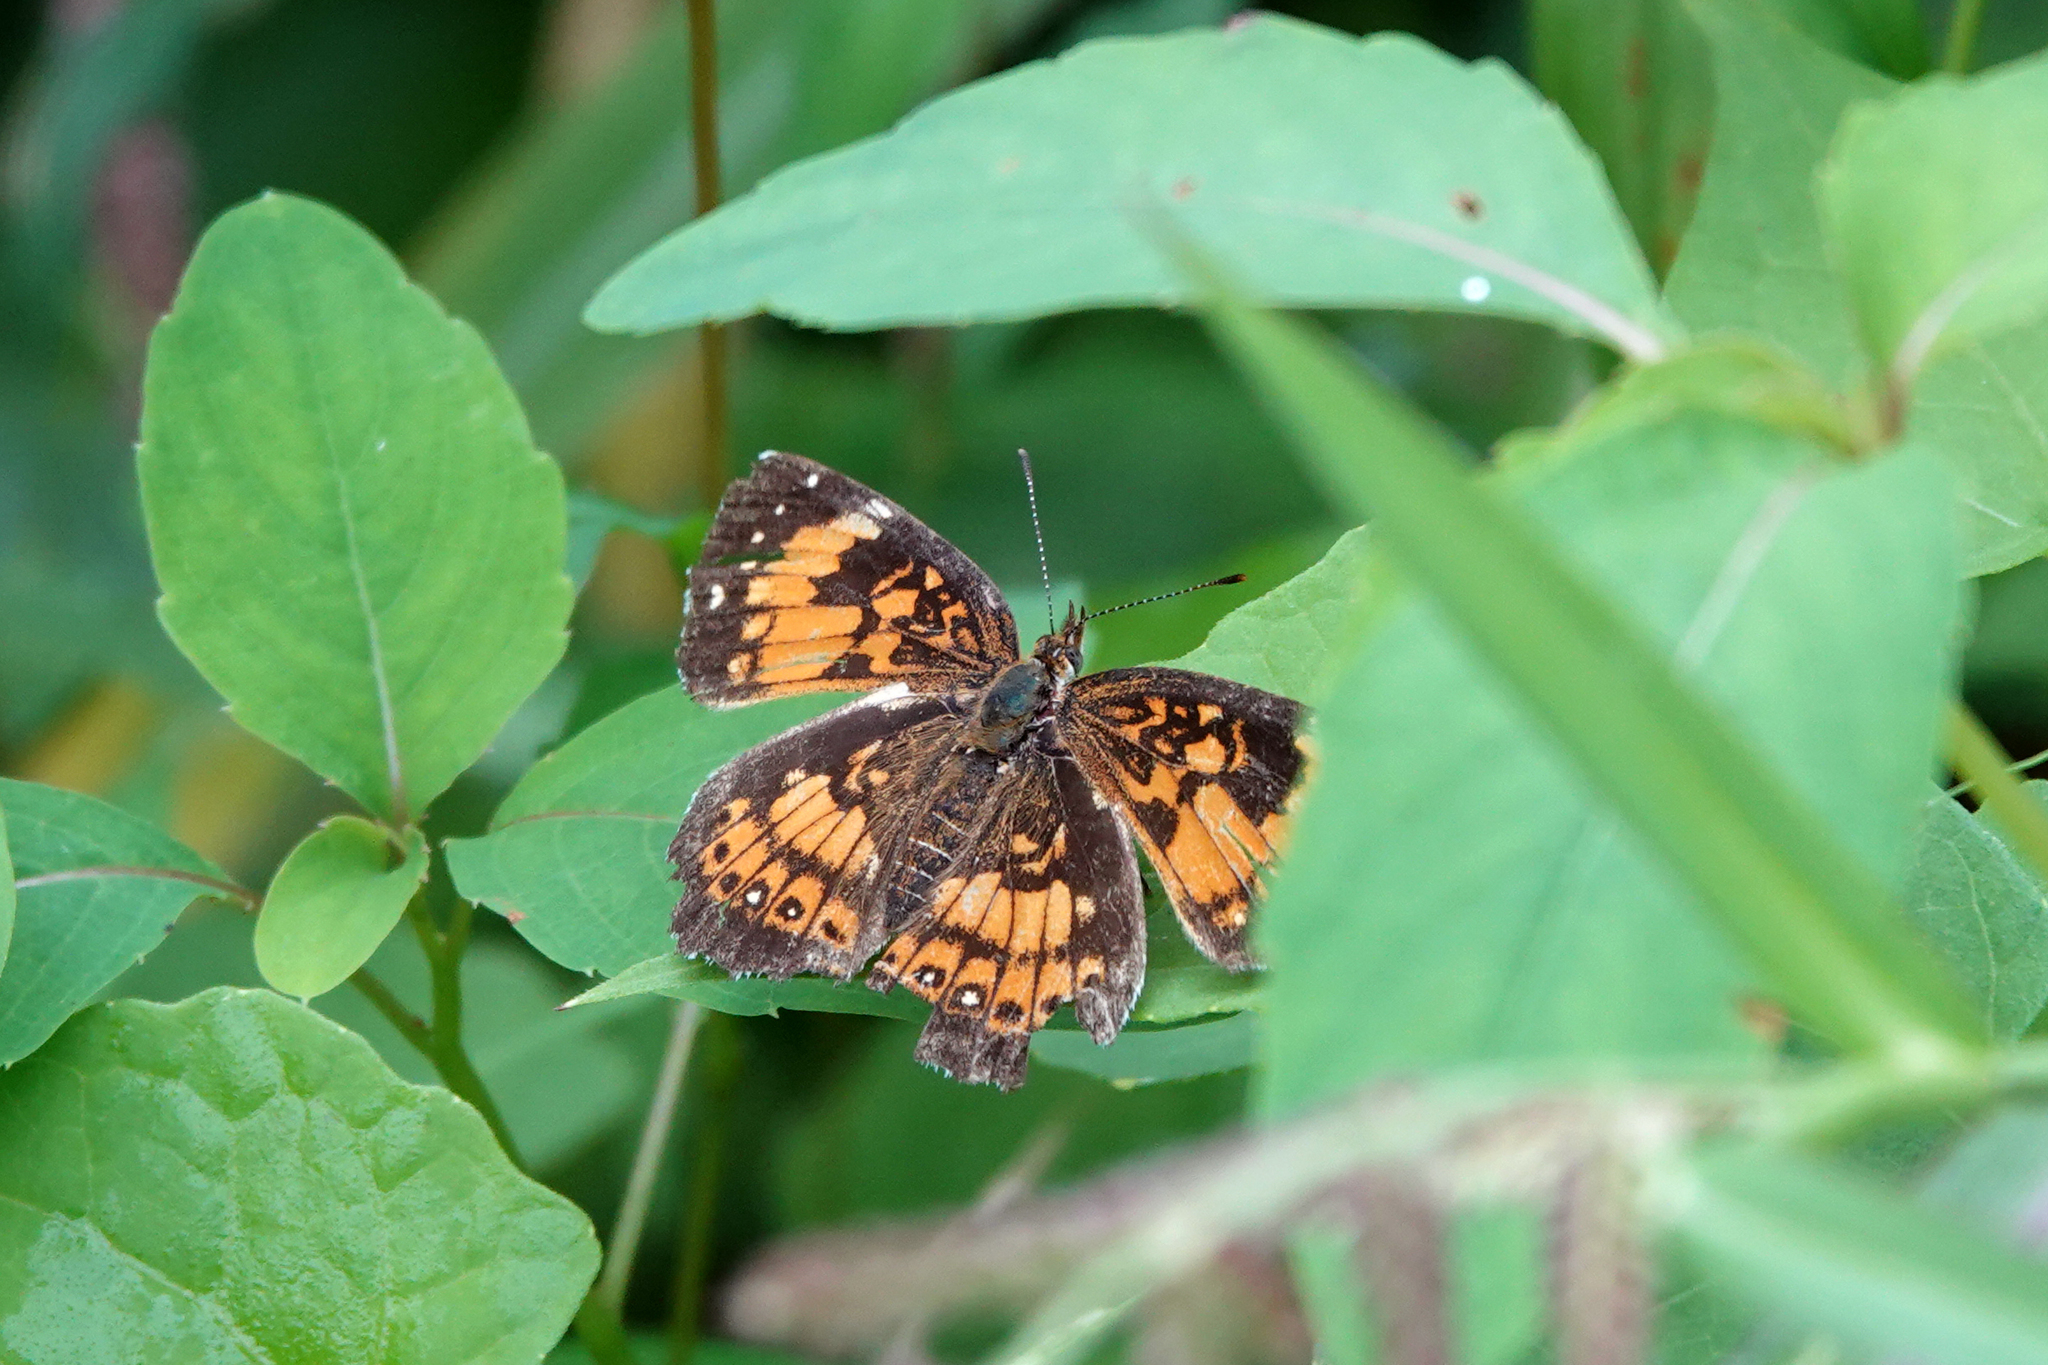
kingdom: Animalia
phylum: Arthropoda
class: Insecta
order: Lepidoptera
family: Nymphalidae
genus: Chlosyne
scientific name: Chlosyne nycteis
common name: Silvery checkerspot
